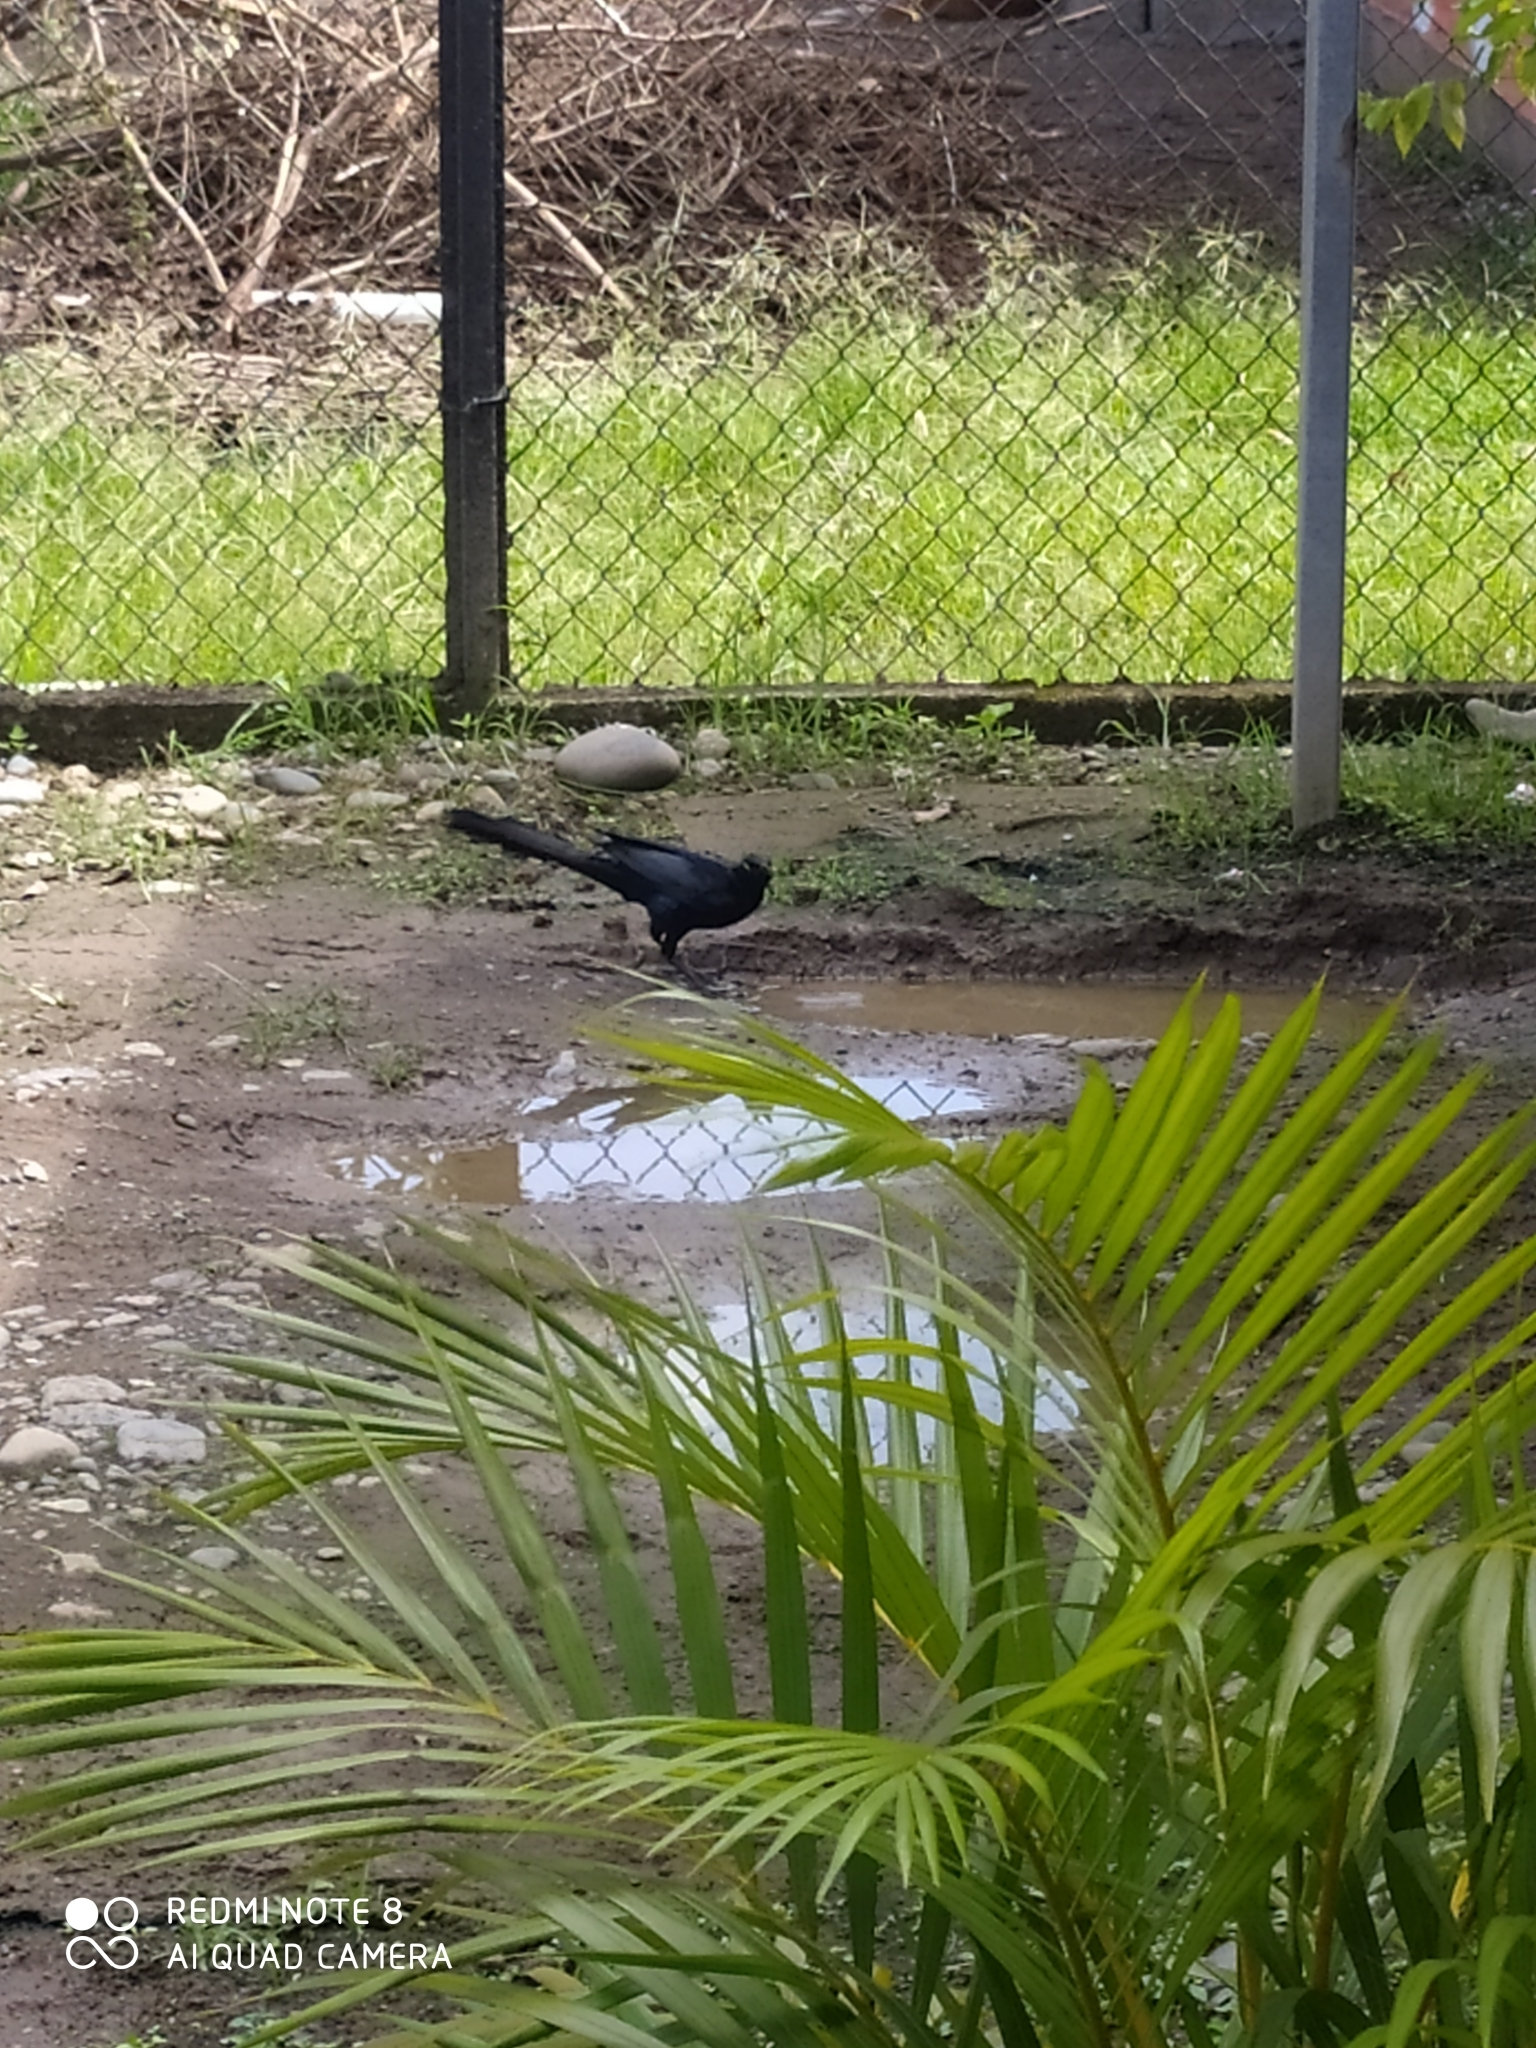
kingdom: Animalia
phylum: Chordata
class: Aves
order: Passeriformes
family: Icteridae
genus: Quiscalus
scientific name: Quiscalus mexicanus
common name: Great-tailed grackle
